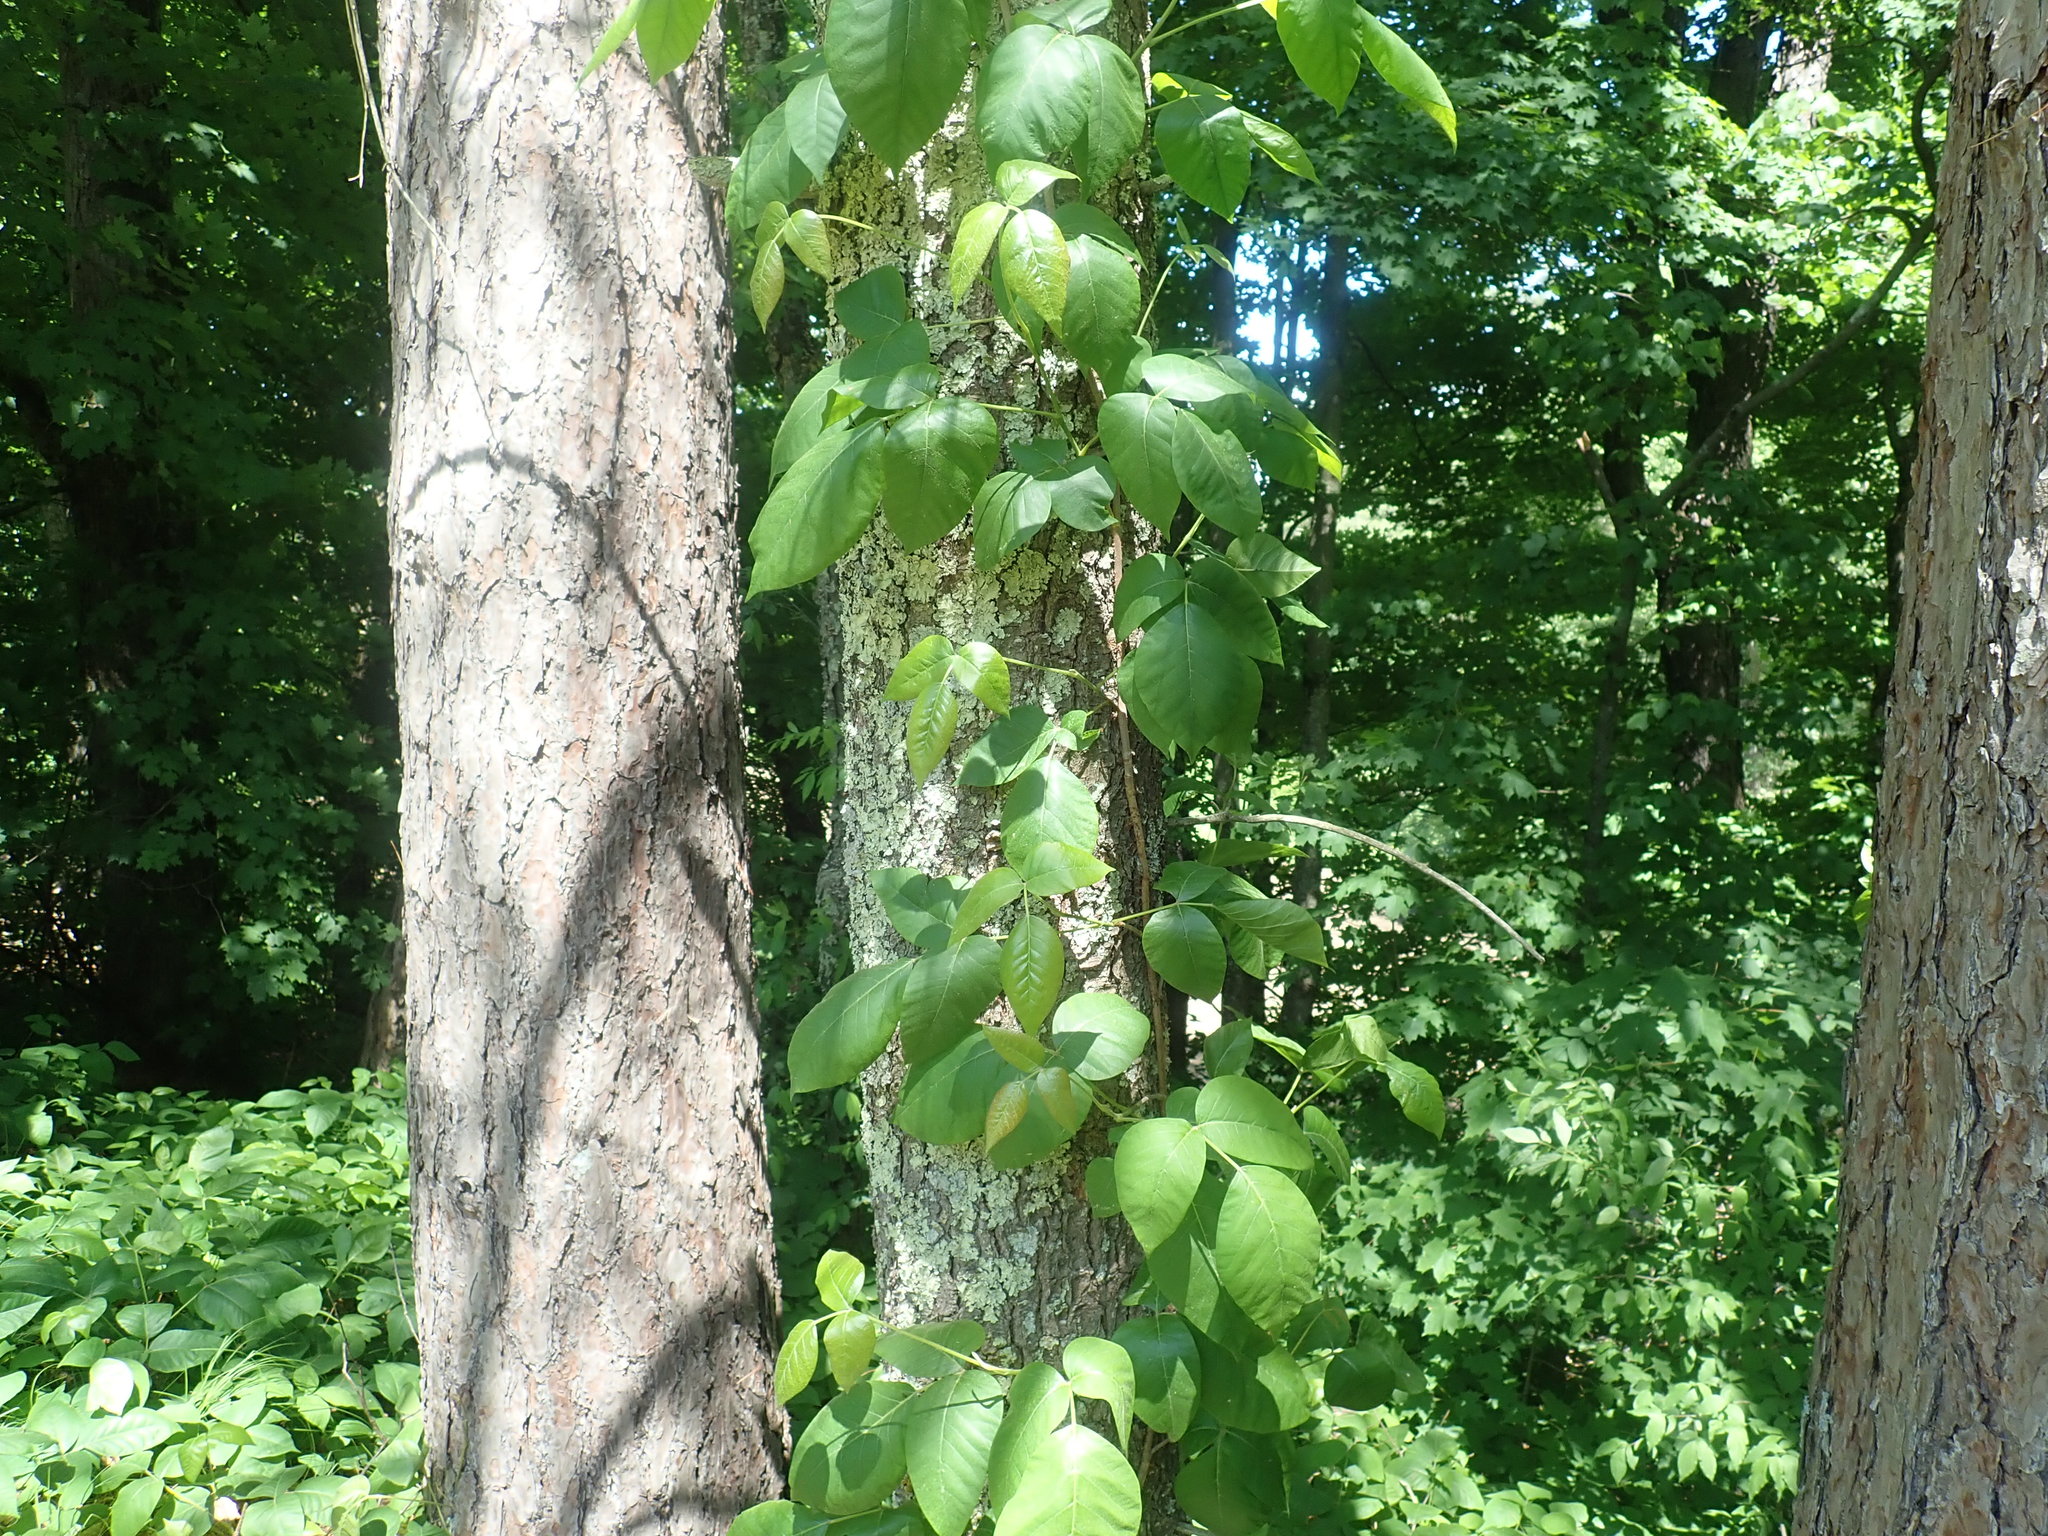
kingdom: Plantae
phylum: Tracheophyta
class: Magnoliopsida
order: Sapindales
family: Anacardiaceae
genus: Toxicodendron
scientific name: Toxicodendron radicans
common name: Poison ivy
